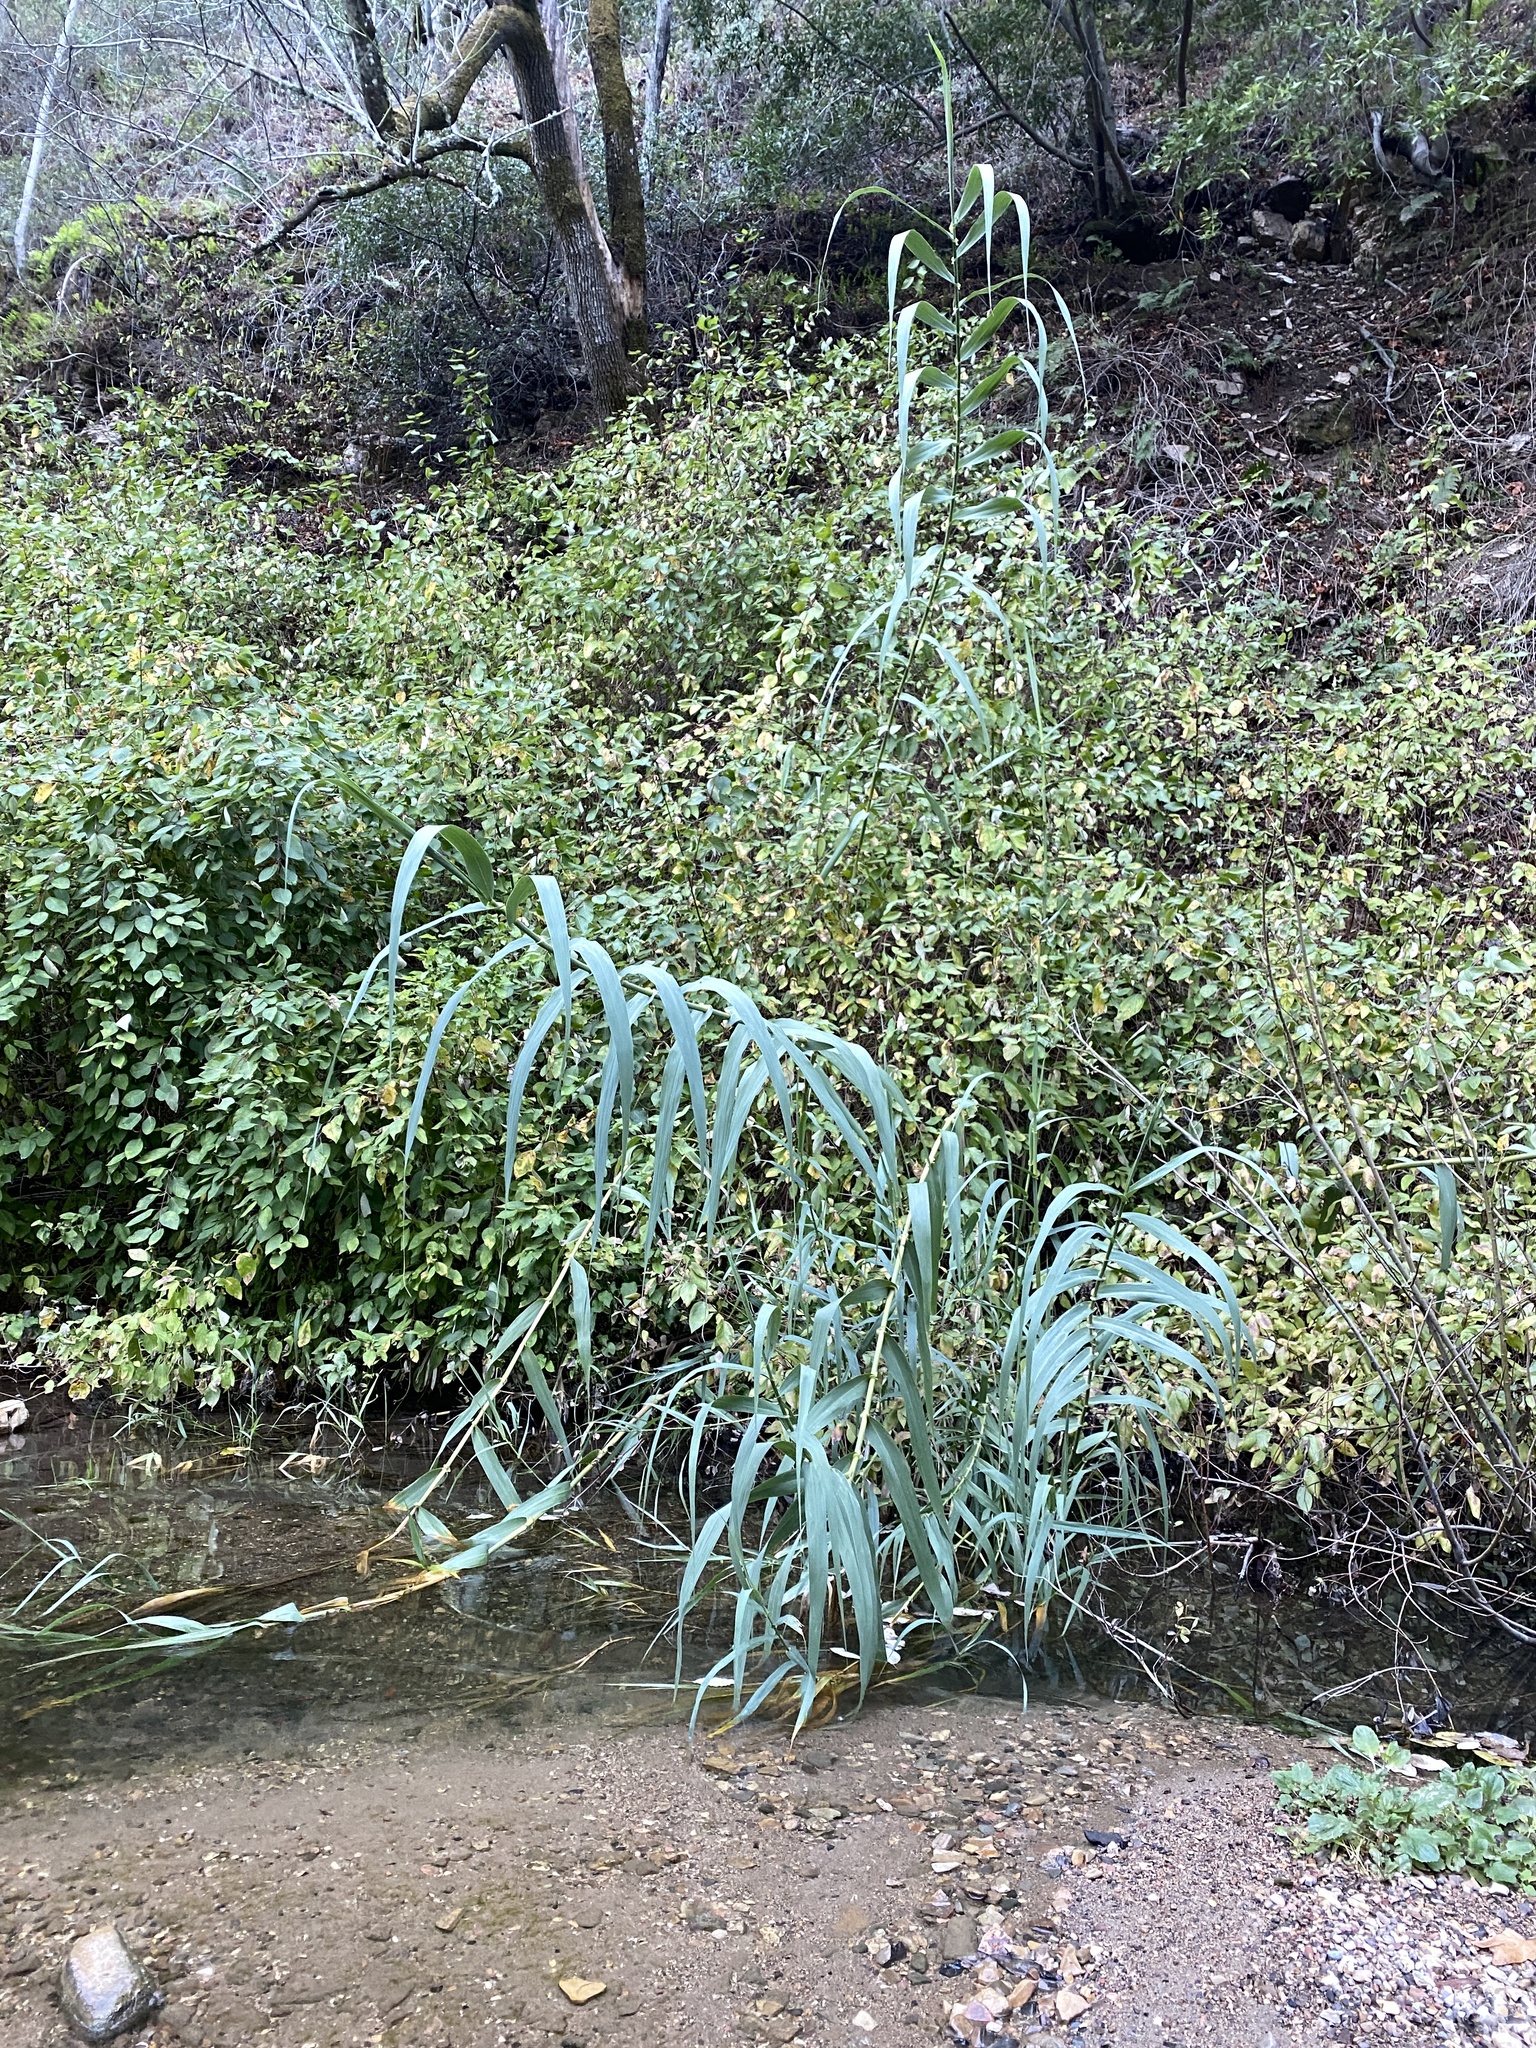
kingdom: Plantae
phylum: Tracheophyta
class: Liliopsida
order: Poales
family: Poaceae
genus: Arundo
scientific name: Arundo donax
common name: Giant reed
